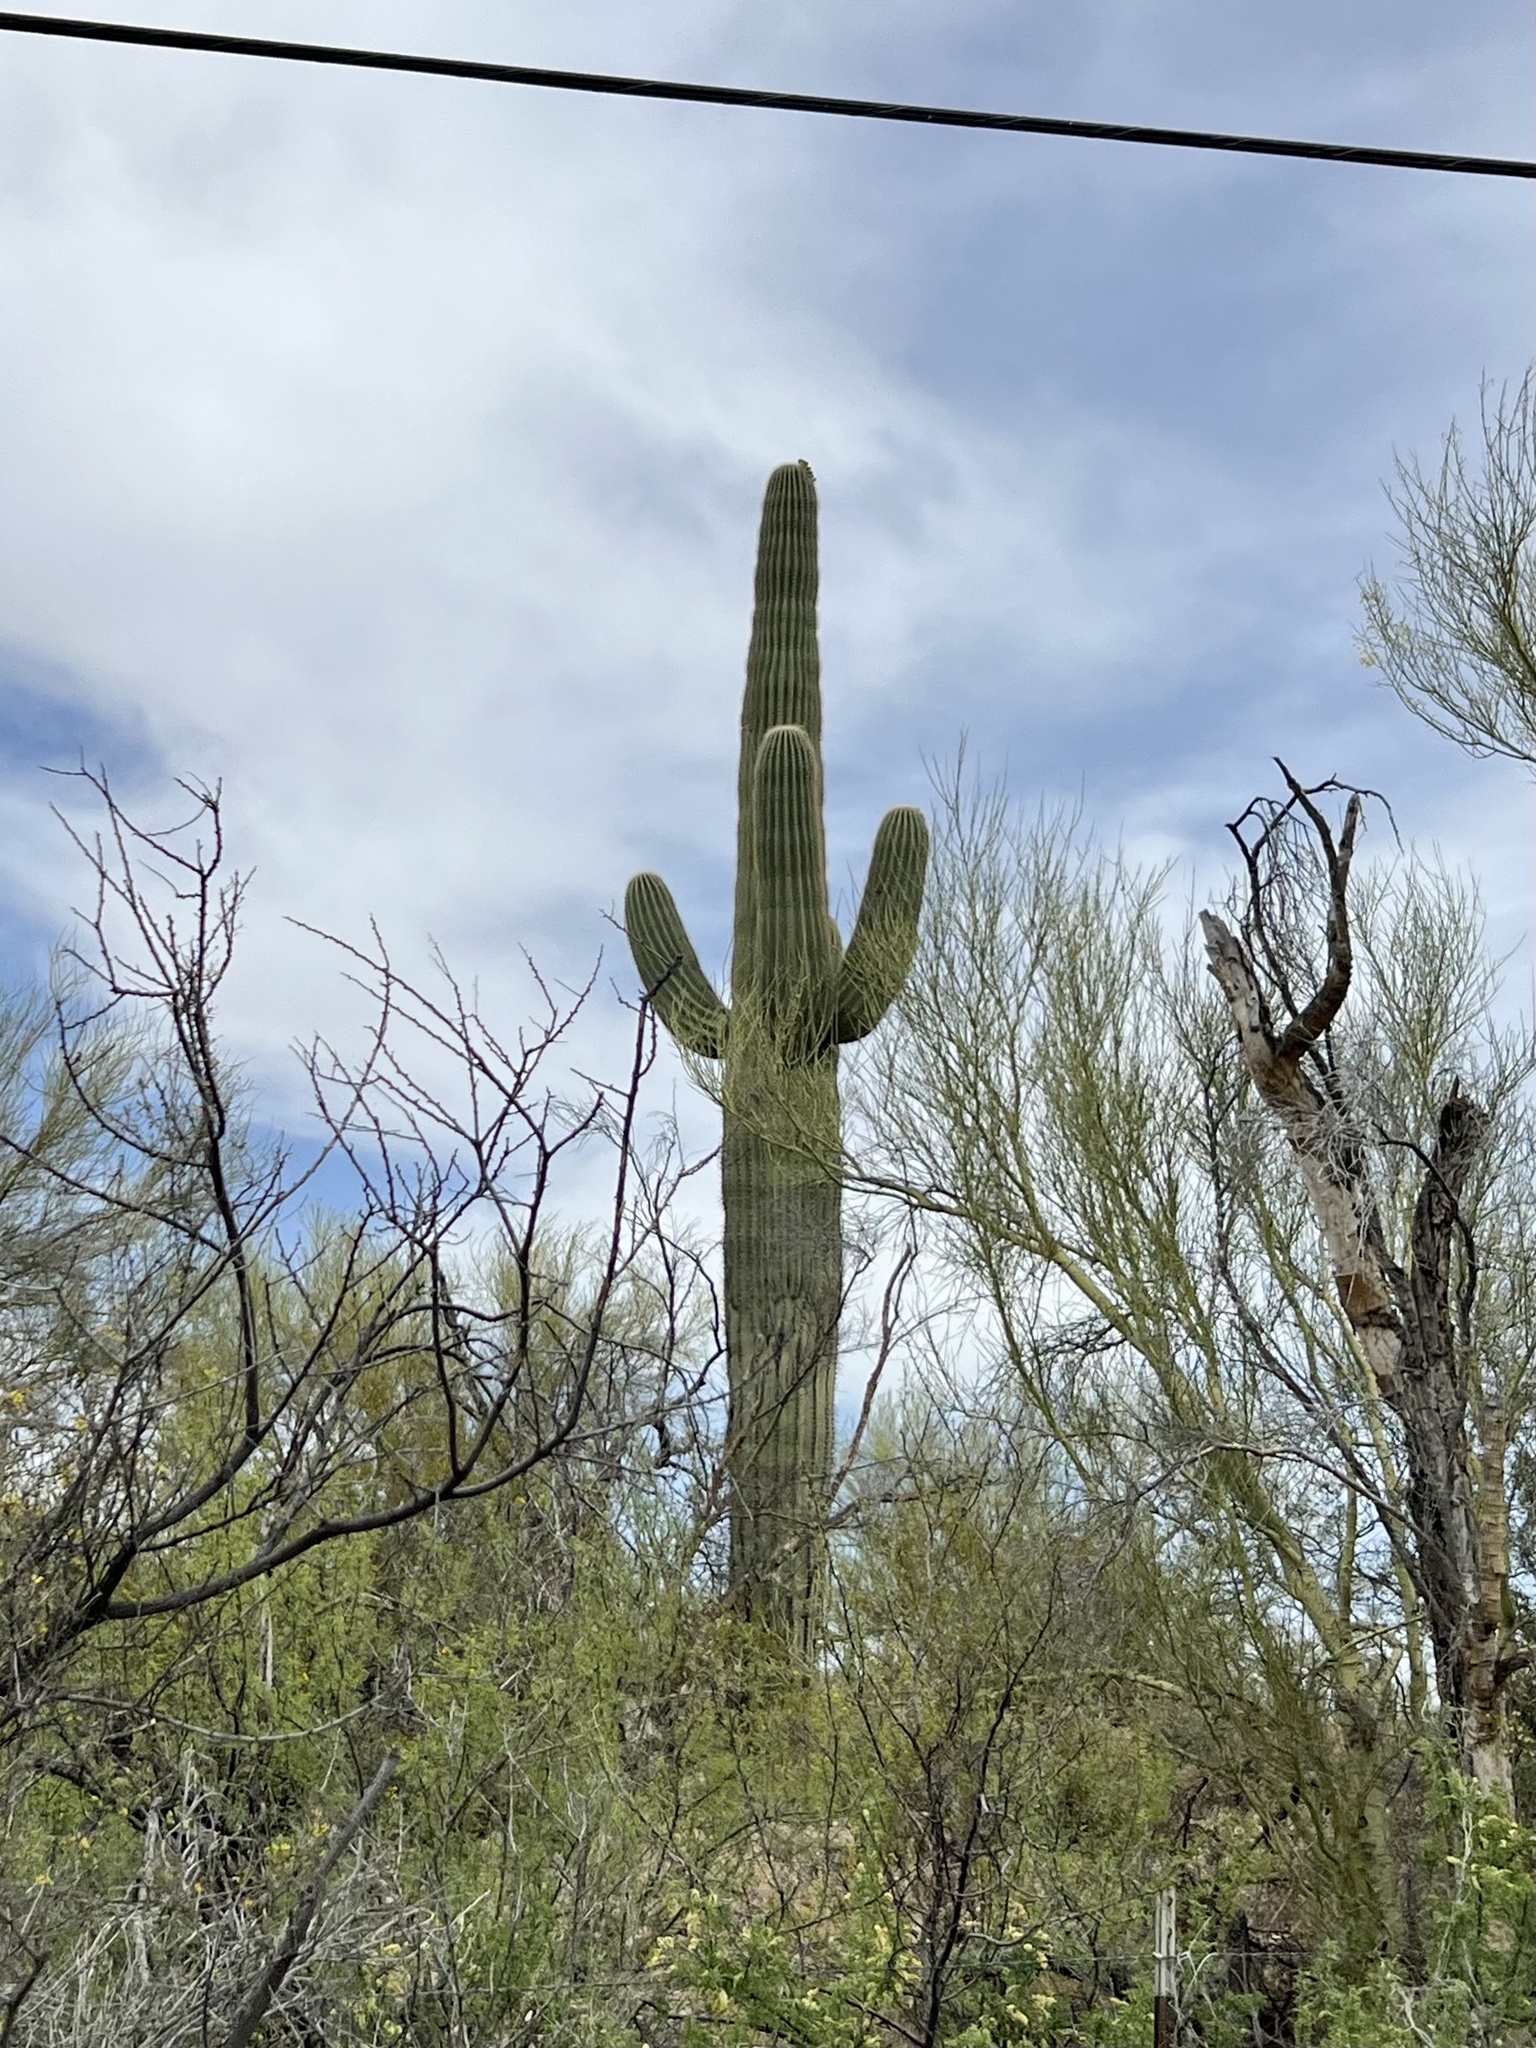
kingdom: Plantae
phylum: Tracheophyta
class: Magnoliopsida
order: Caryophyllales
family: Cactaceae
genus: Carnegiea
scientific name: Carnegiea gigantea
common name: Saguaro
